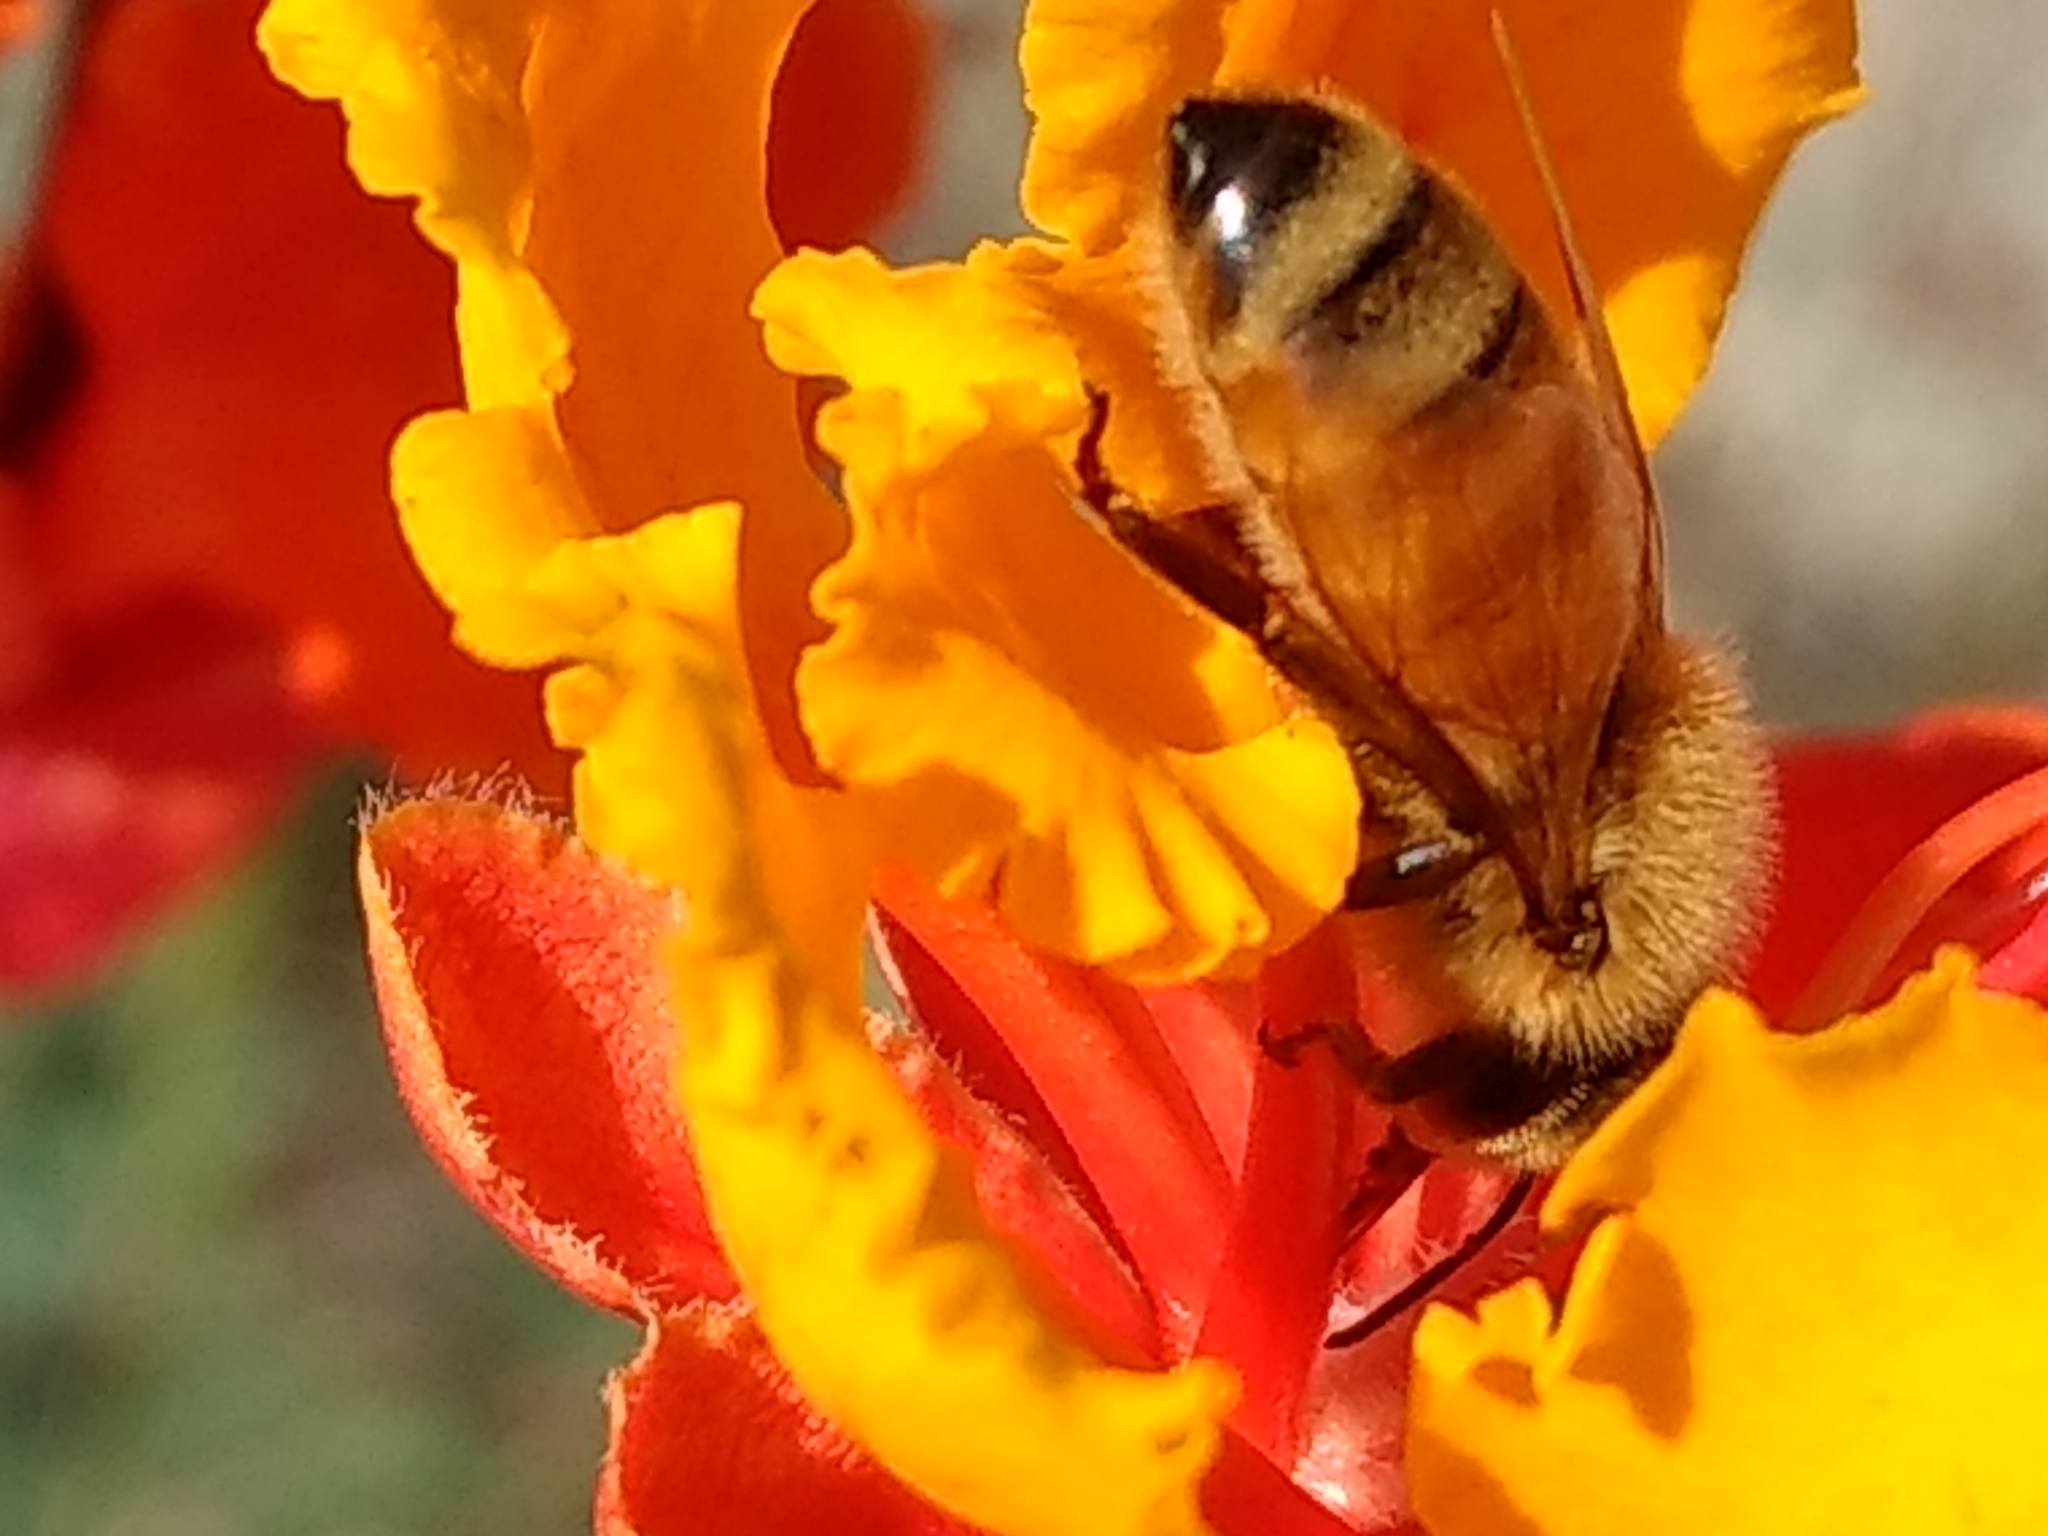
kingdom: Animalia
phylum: Arthropoda
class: Insecta
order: Hymenoptera
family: Apidae
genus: Apis
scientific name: Apis mellifera
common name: Honey bee
